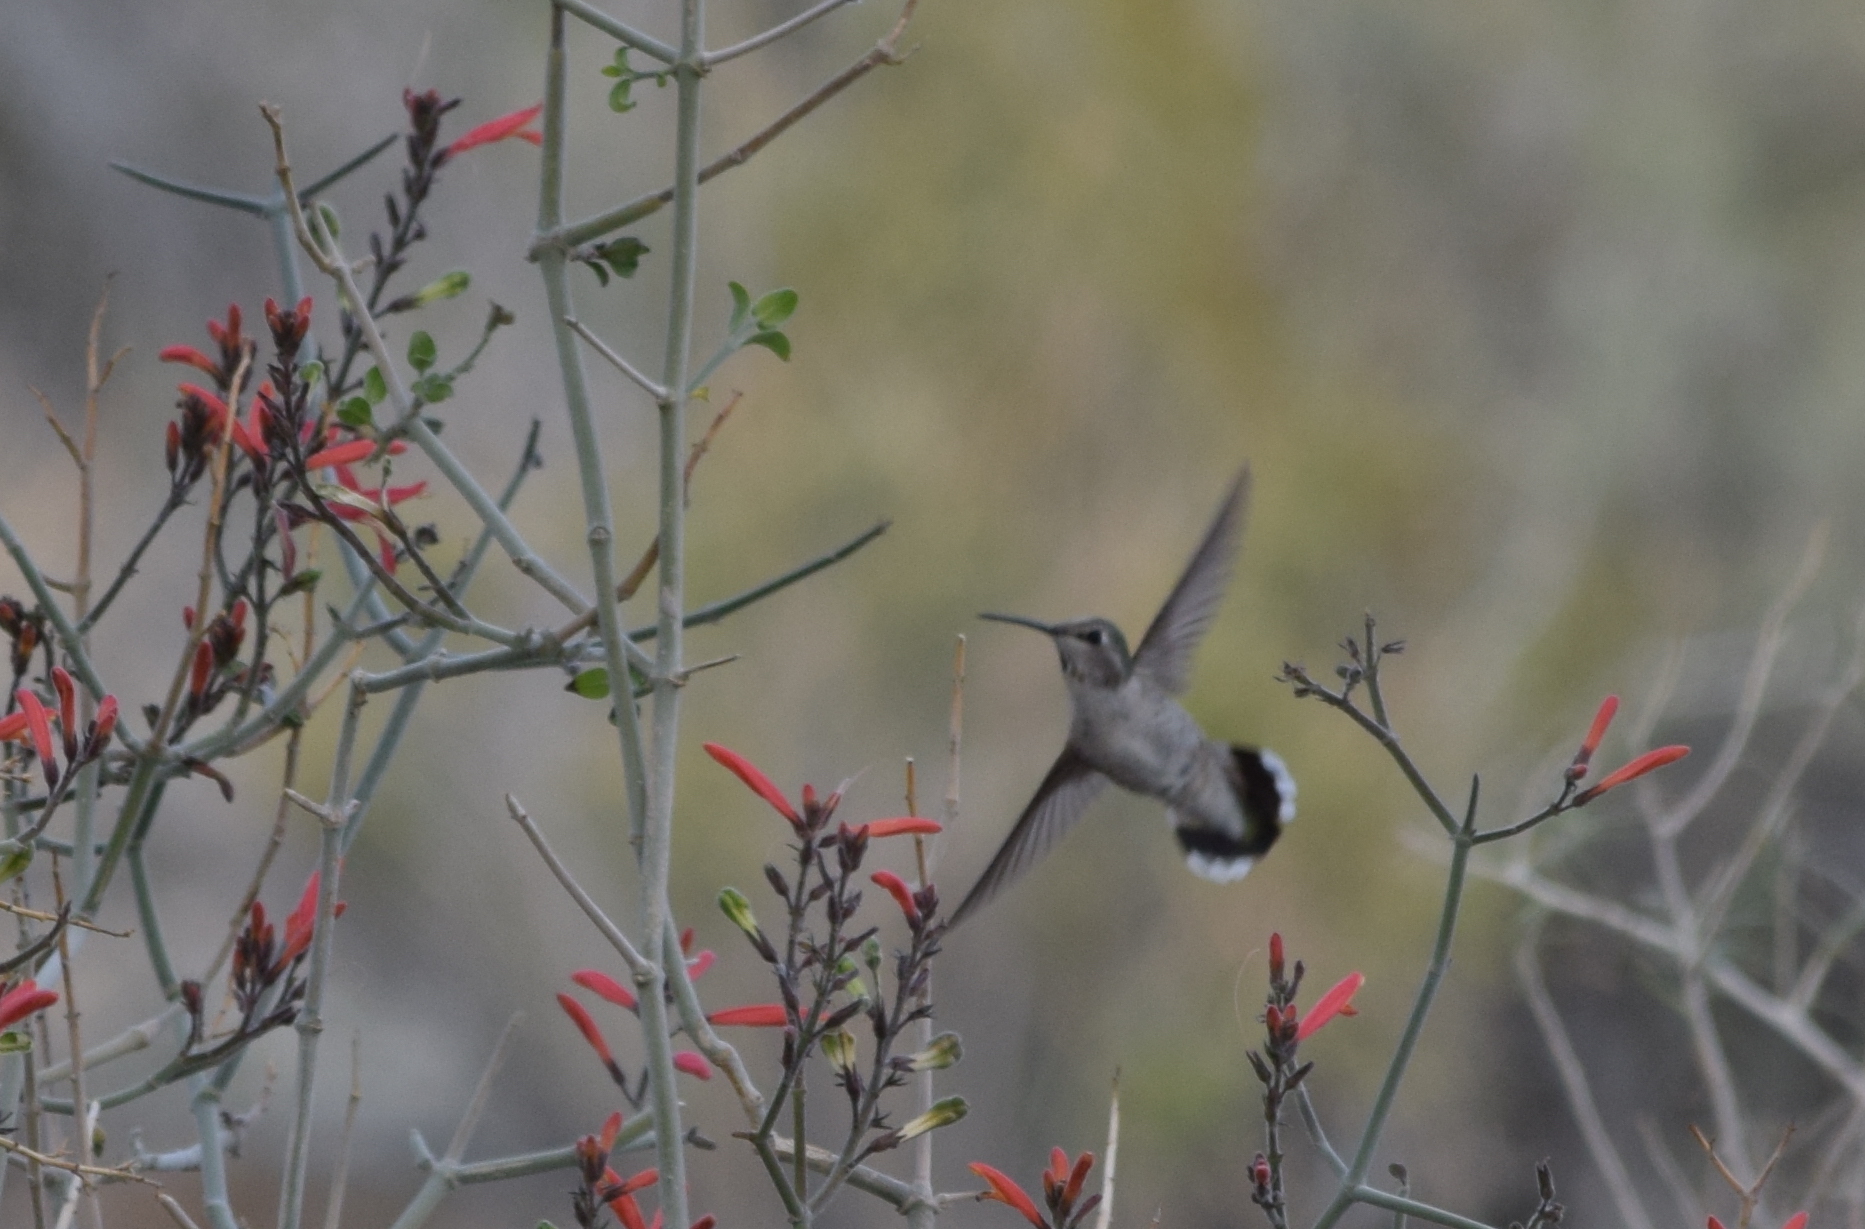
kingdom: Animalia
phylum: Chordata
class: Aves
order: Apodiformes
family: Trochilidae
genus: Calypte
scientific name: Calypte costae
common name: Costa's hummingbird
